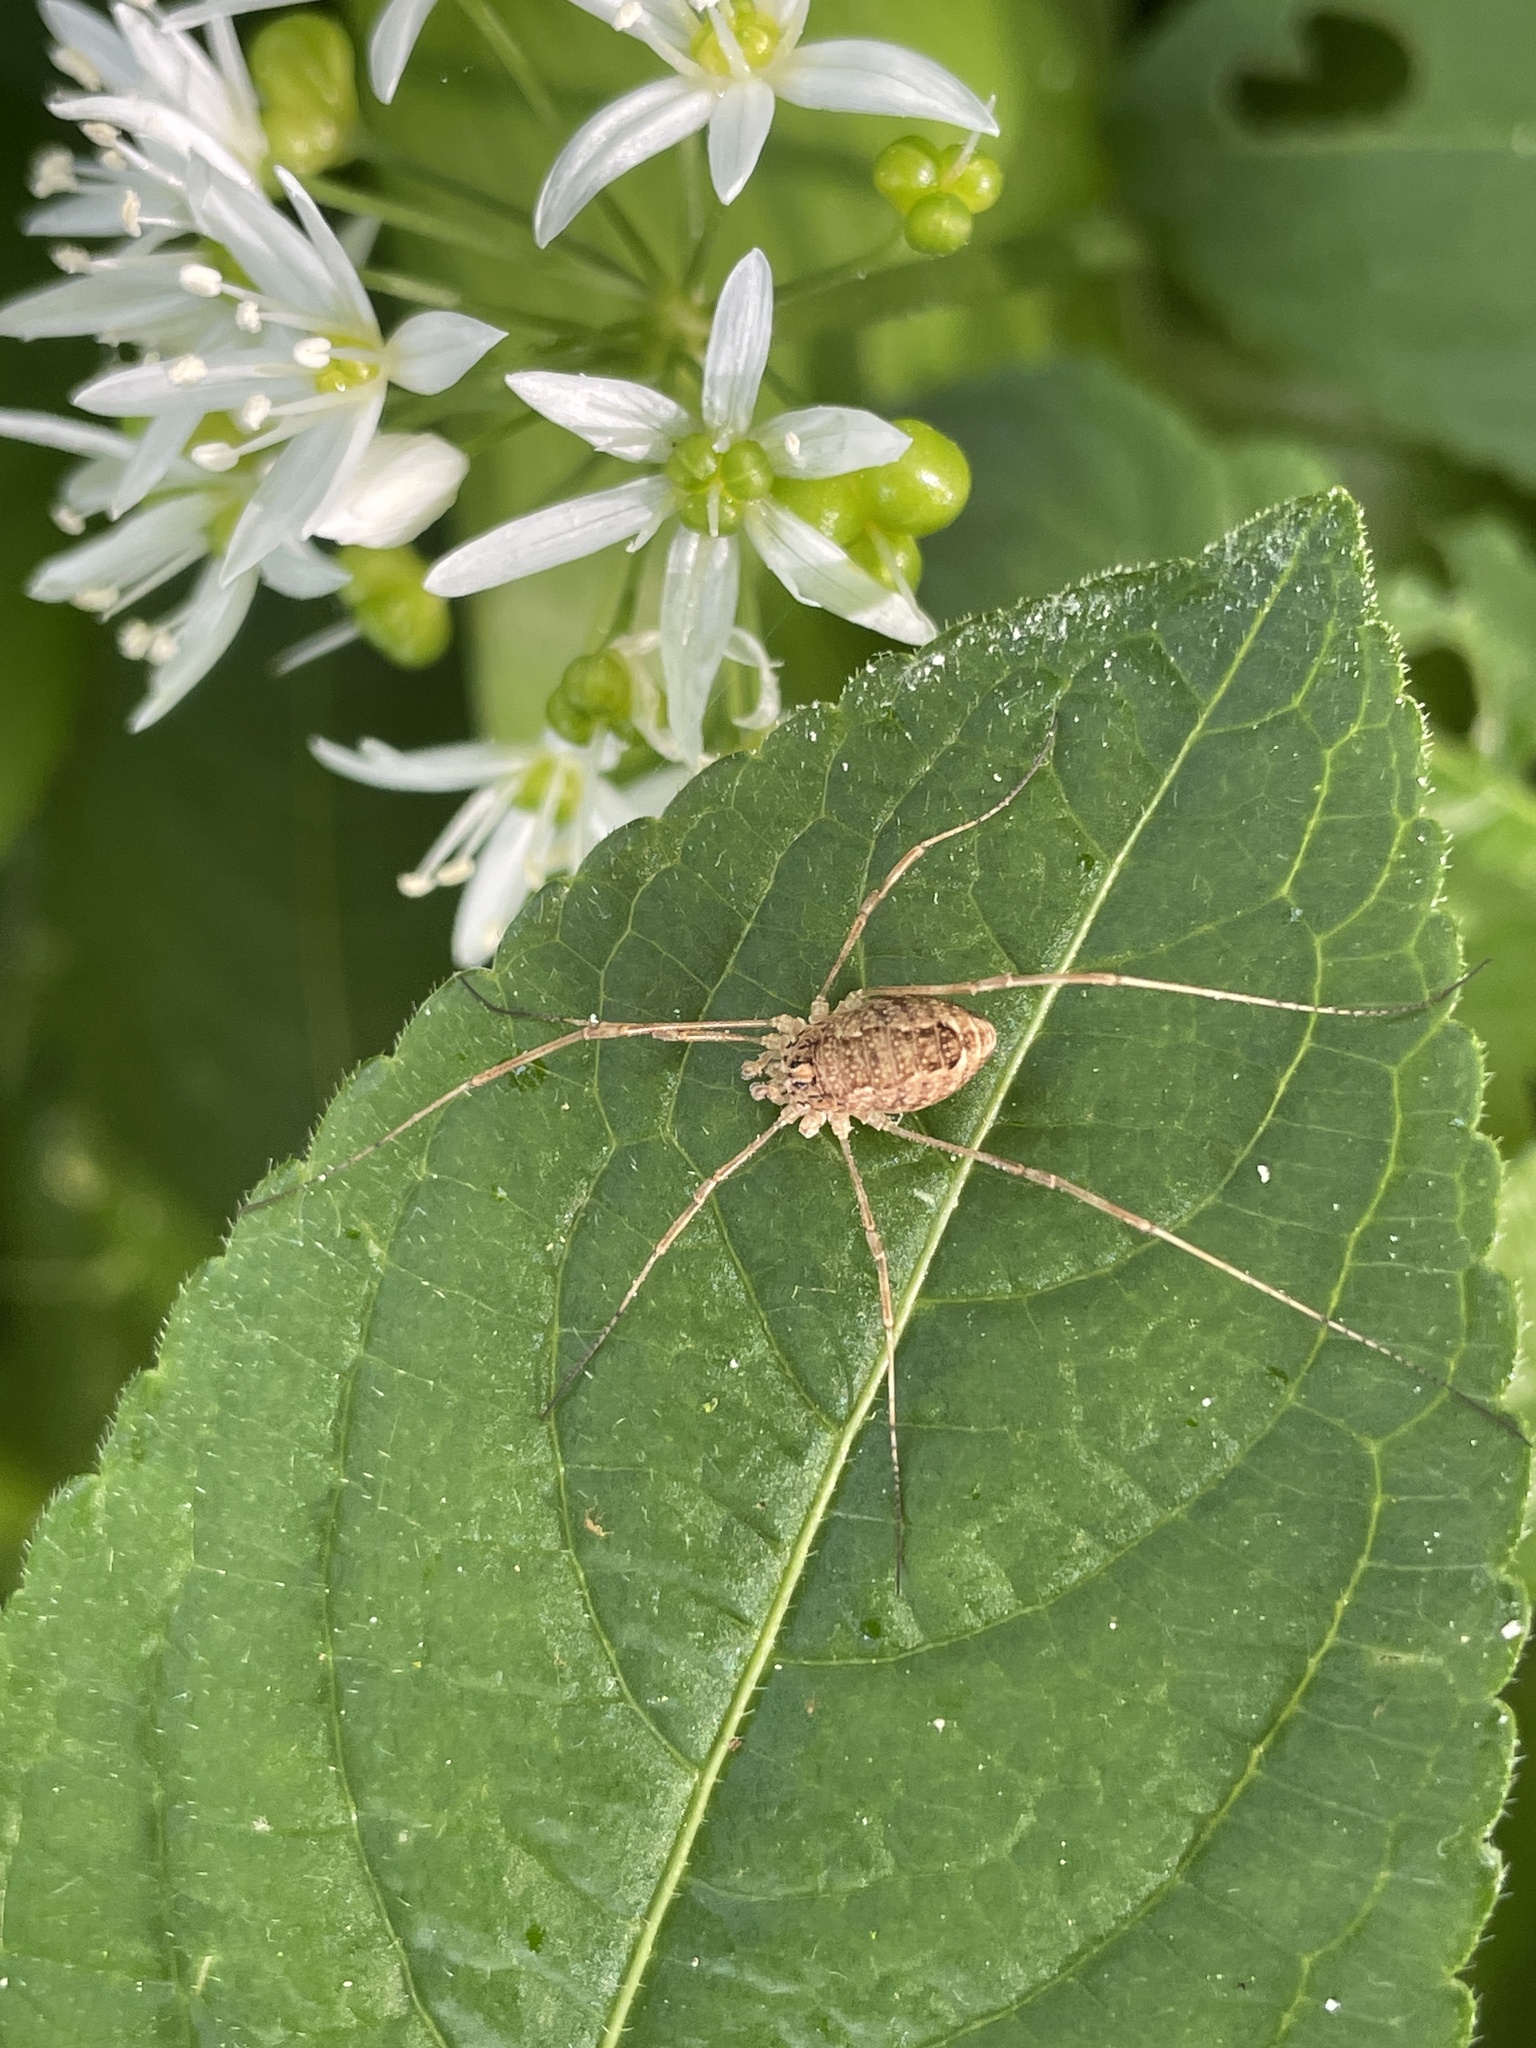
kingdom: Animalia
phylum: Arthropoda
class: Arachnida
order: Opiliones
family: Phalangiidae
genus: Rilaena
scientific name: Rilaena triangularis
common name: Spring harvestman
